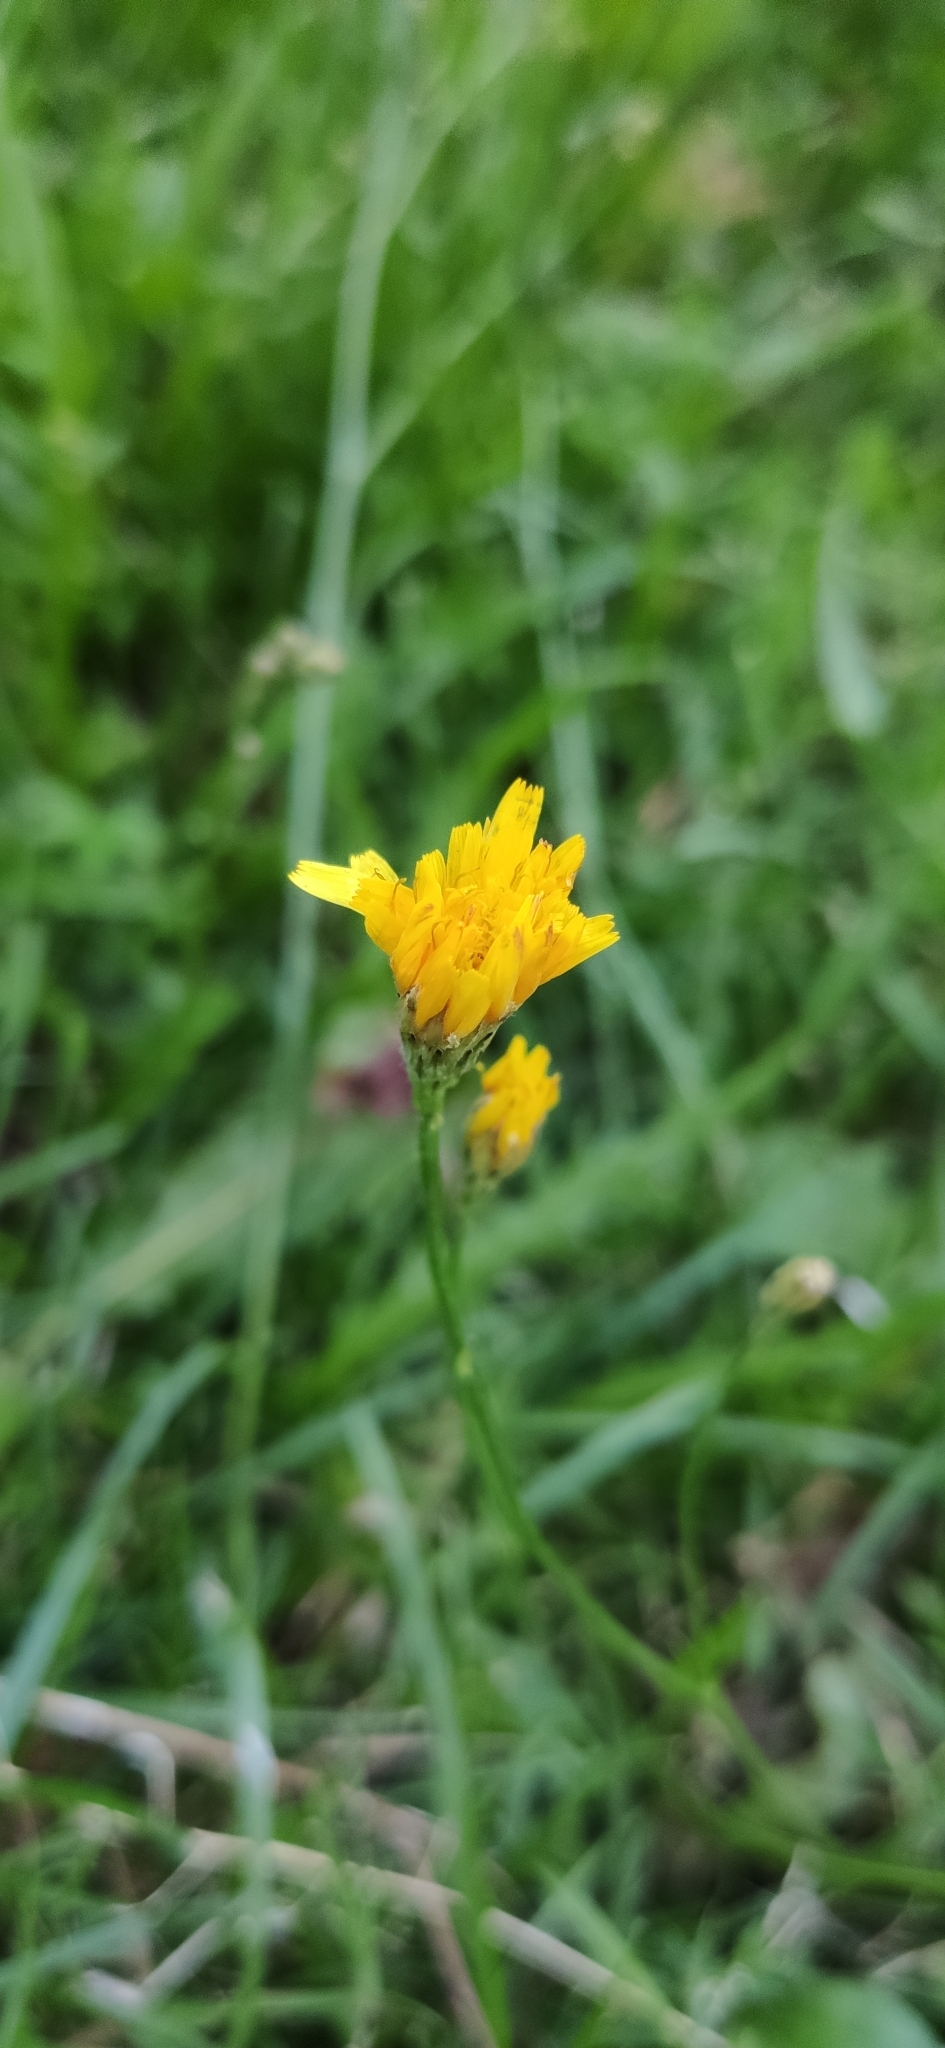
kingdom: Plantae
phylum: Tracheophyta
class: Magnoliopsida
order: Asterales
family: Asteraceae
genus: Scorzoneroides
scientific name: Scorzoneroides autumnalis
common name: Autumn hawkbit
